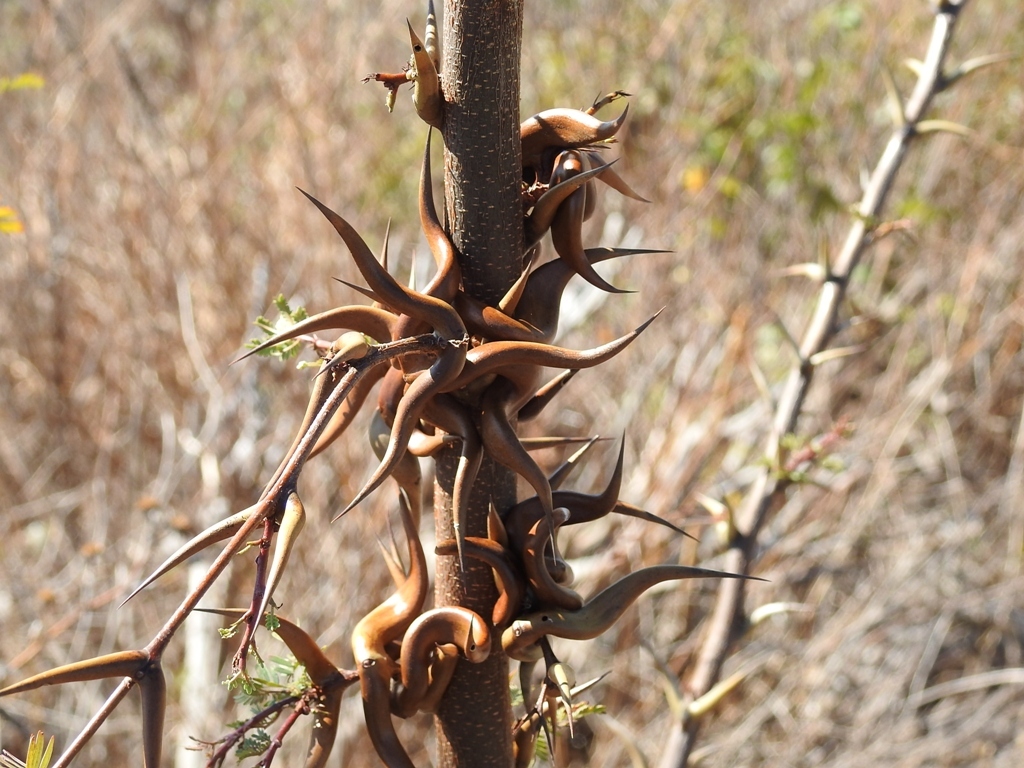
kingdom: Plantae
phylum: Tracheophyta
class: Magnoliopsida
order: Fabales
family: Fabaceae
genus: Vachellia
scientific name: Vachellia cornigera
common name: Bullhorn wattle
